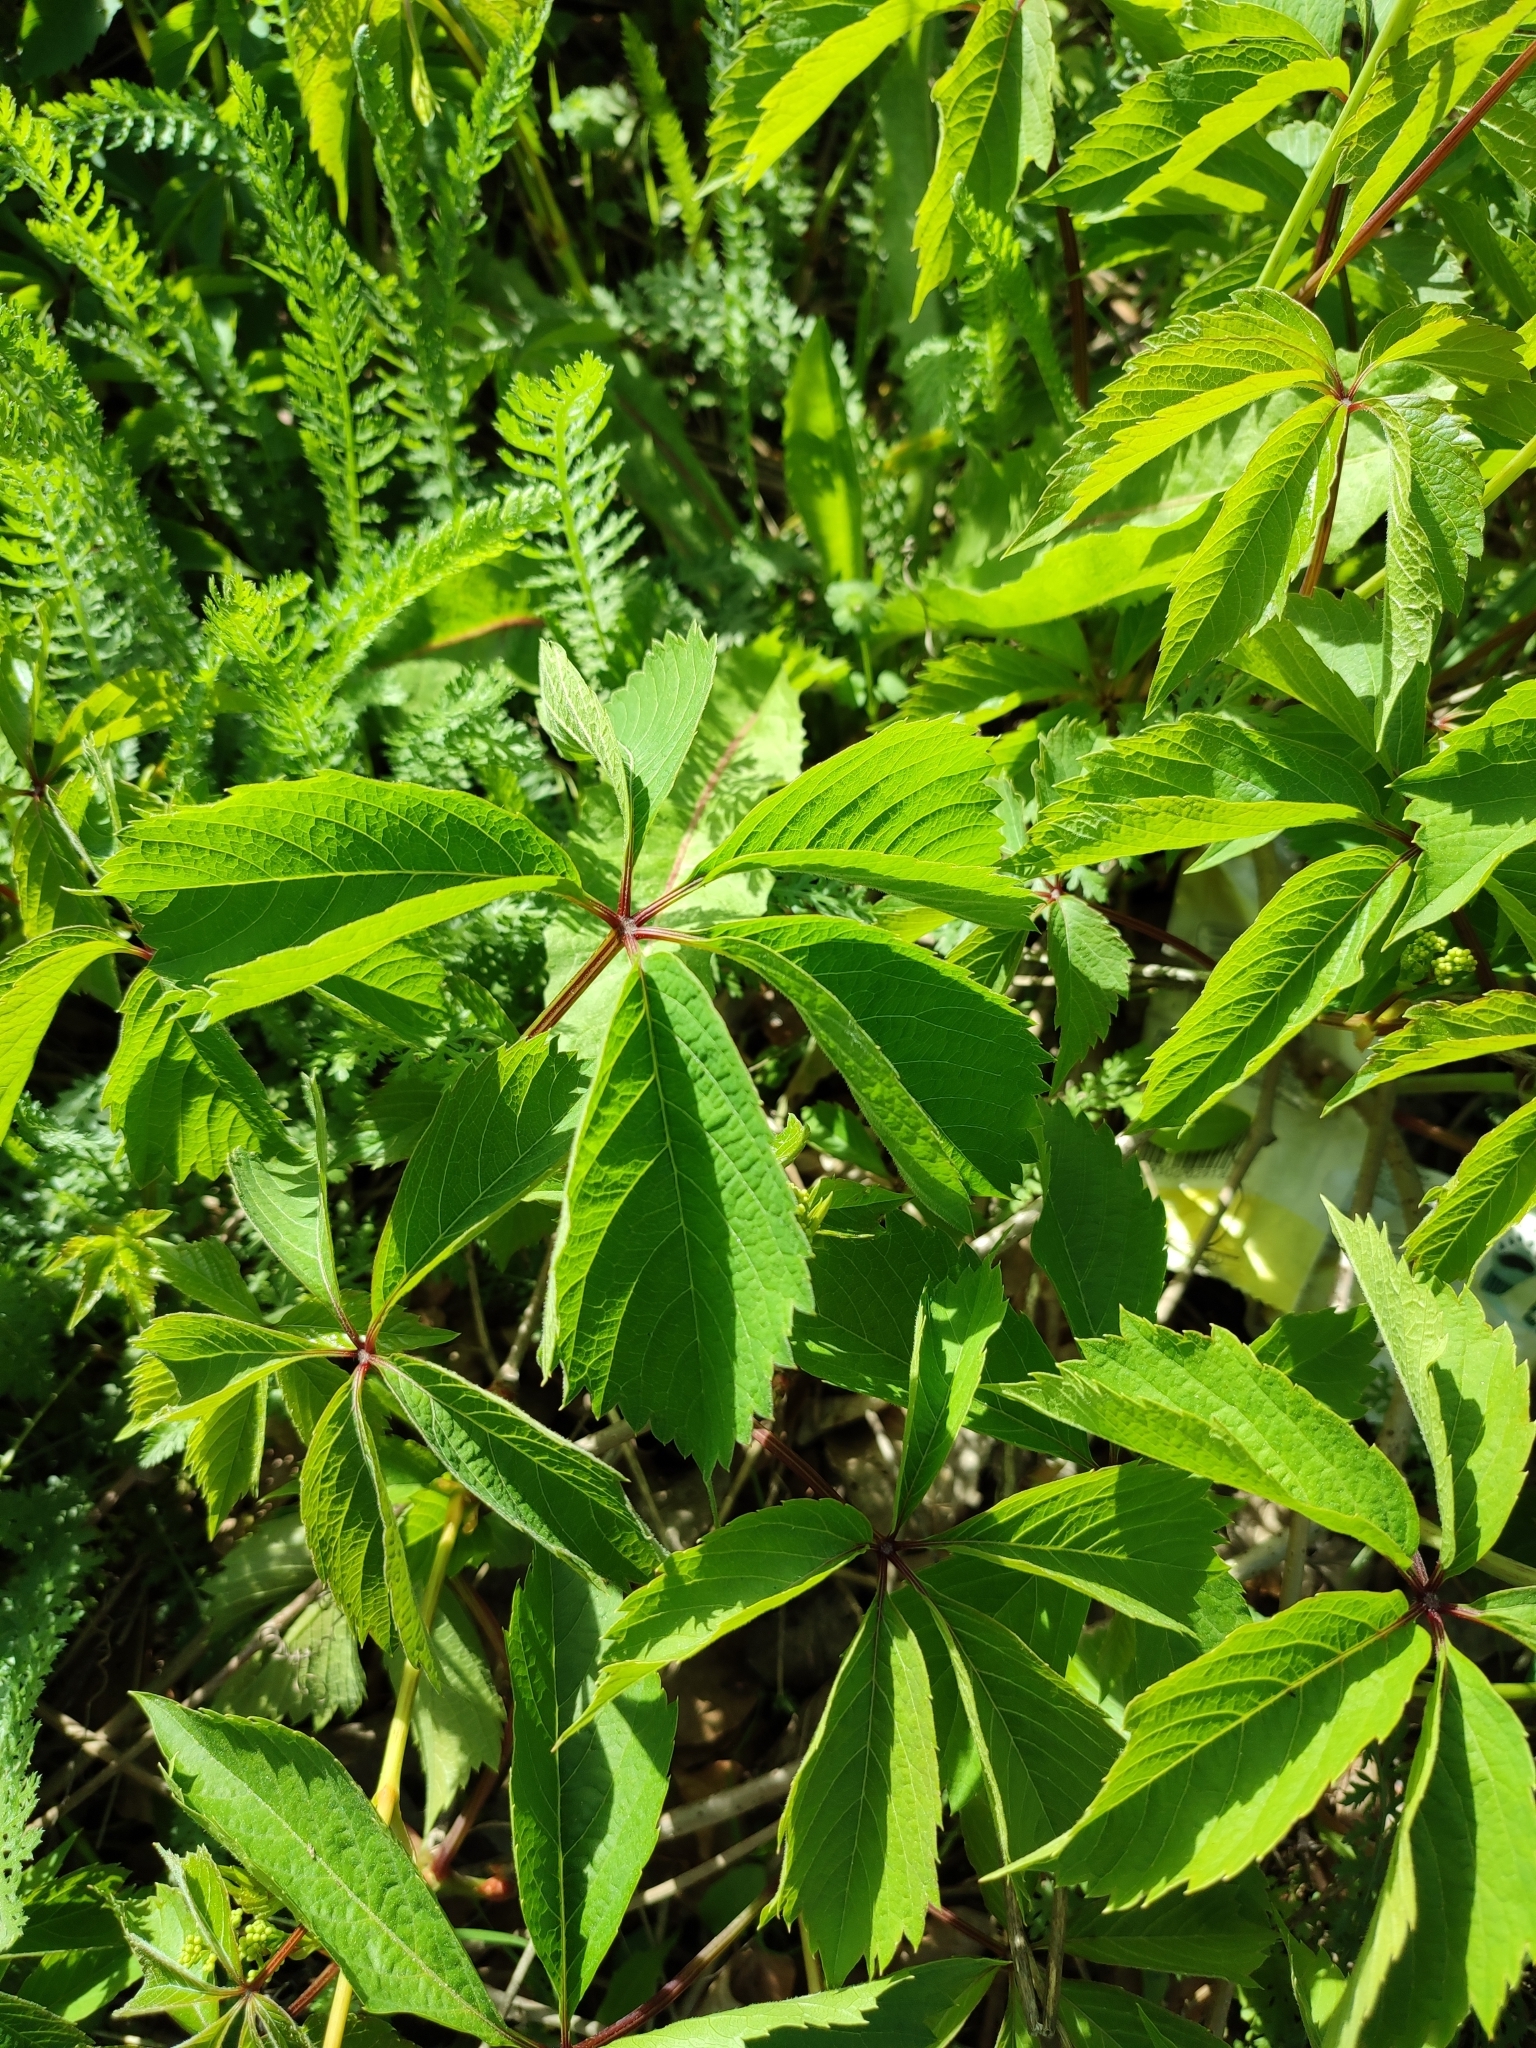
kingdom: Plantae
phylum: Tracheophyta
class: Magnoliopsida
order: Vitales
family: Vitaceae
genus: Parthenocissus
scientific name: Parthenocissus inserta
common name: False virginia-creeper
